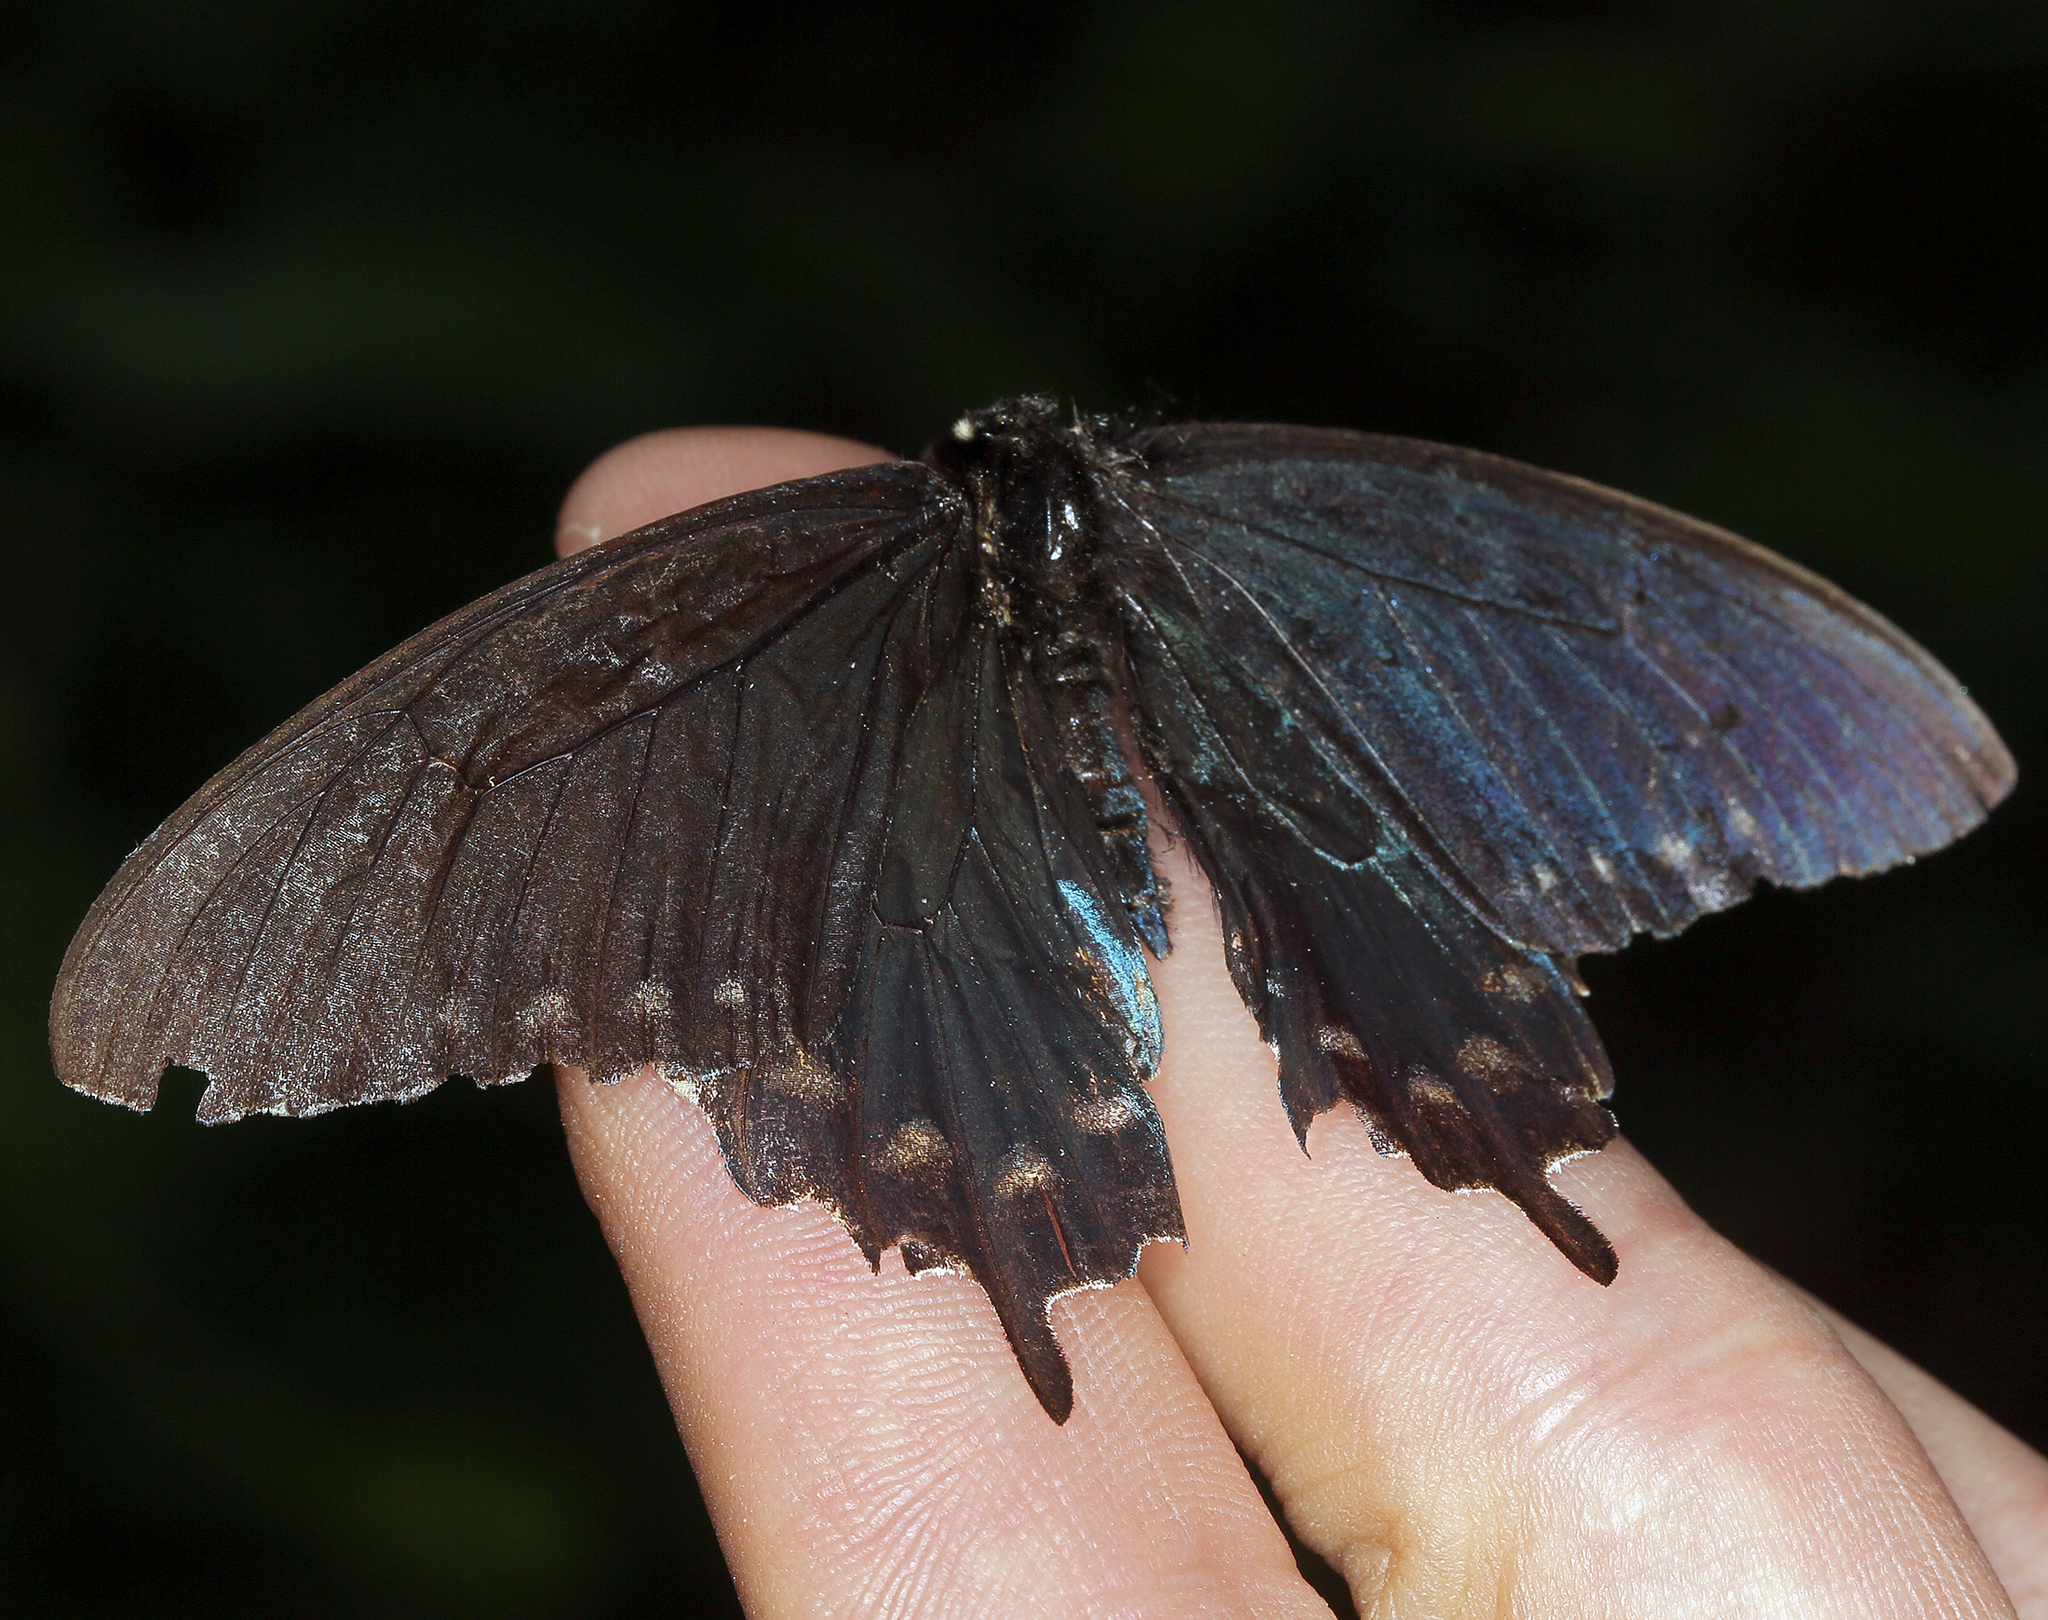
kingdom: Animalia
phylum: Arthropoda
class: Insecta
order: Lepidoptera
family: Papilionidae
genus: Battus
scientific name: Battus philenor
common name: Pipevine swallowtail
